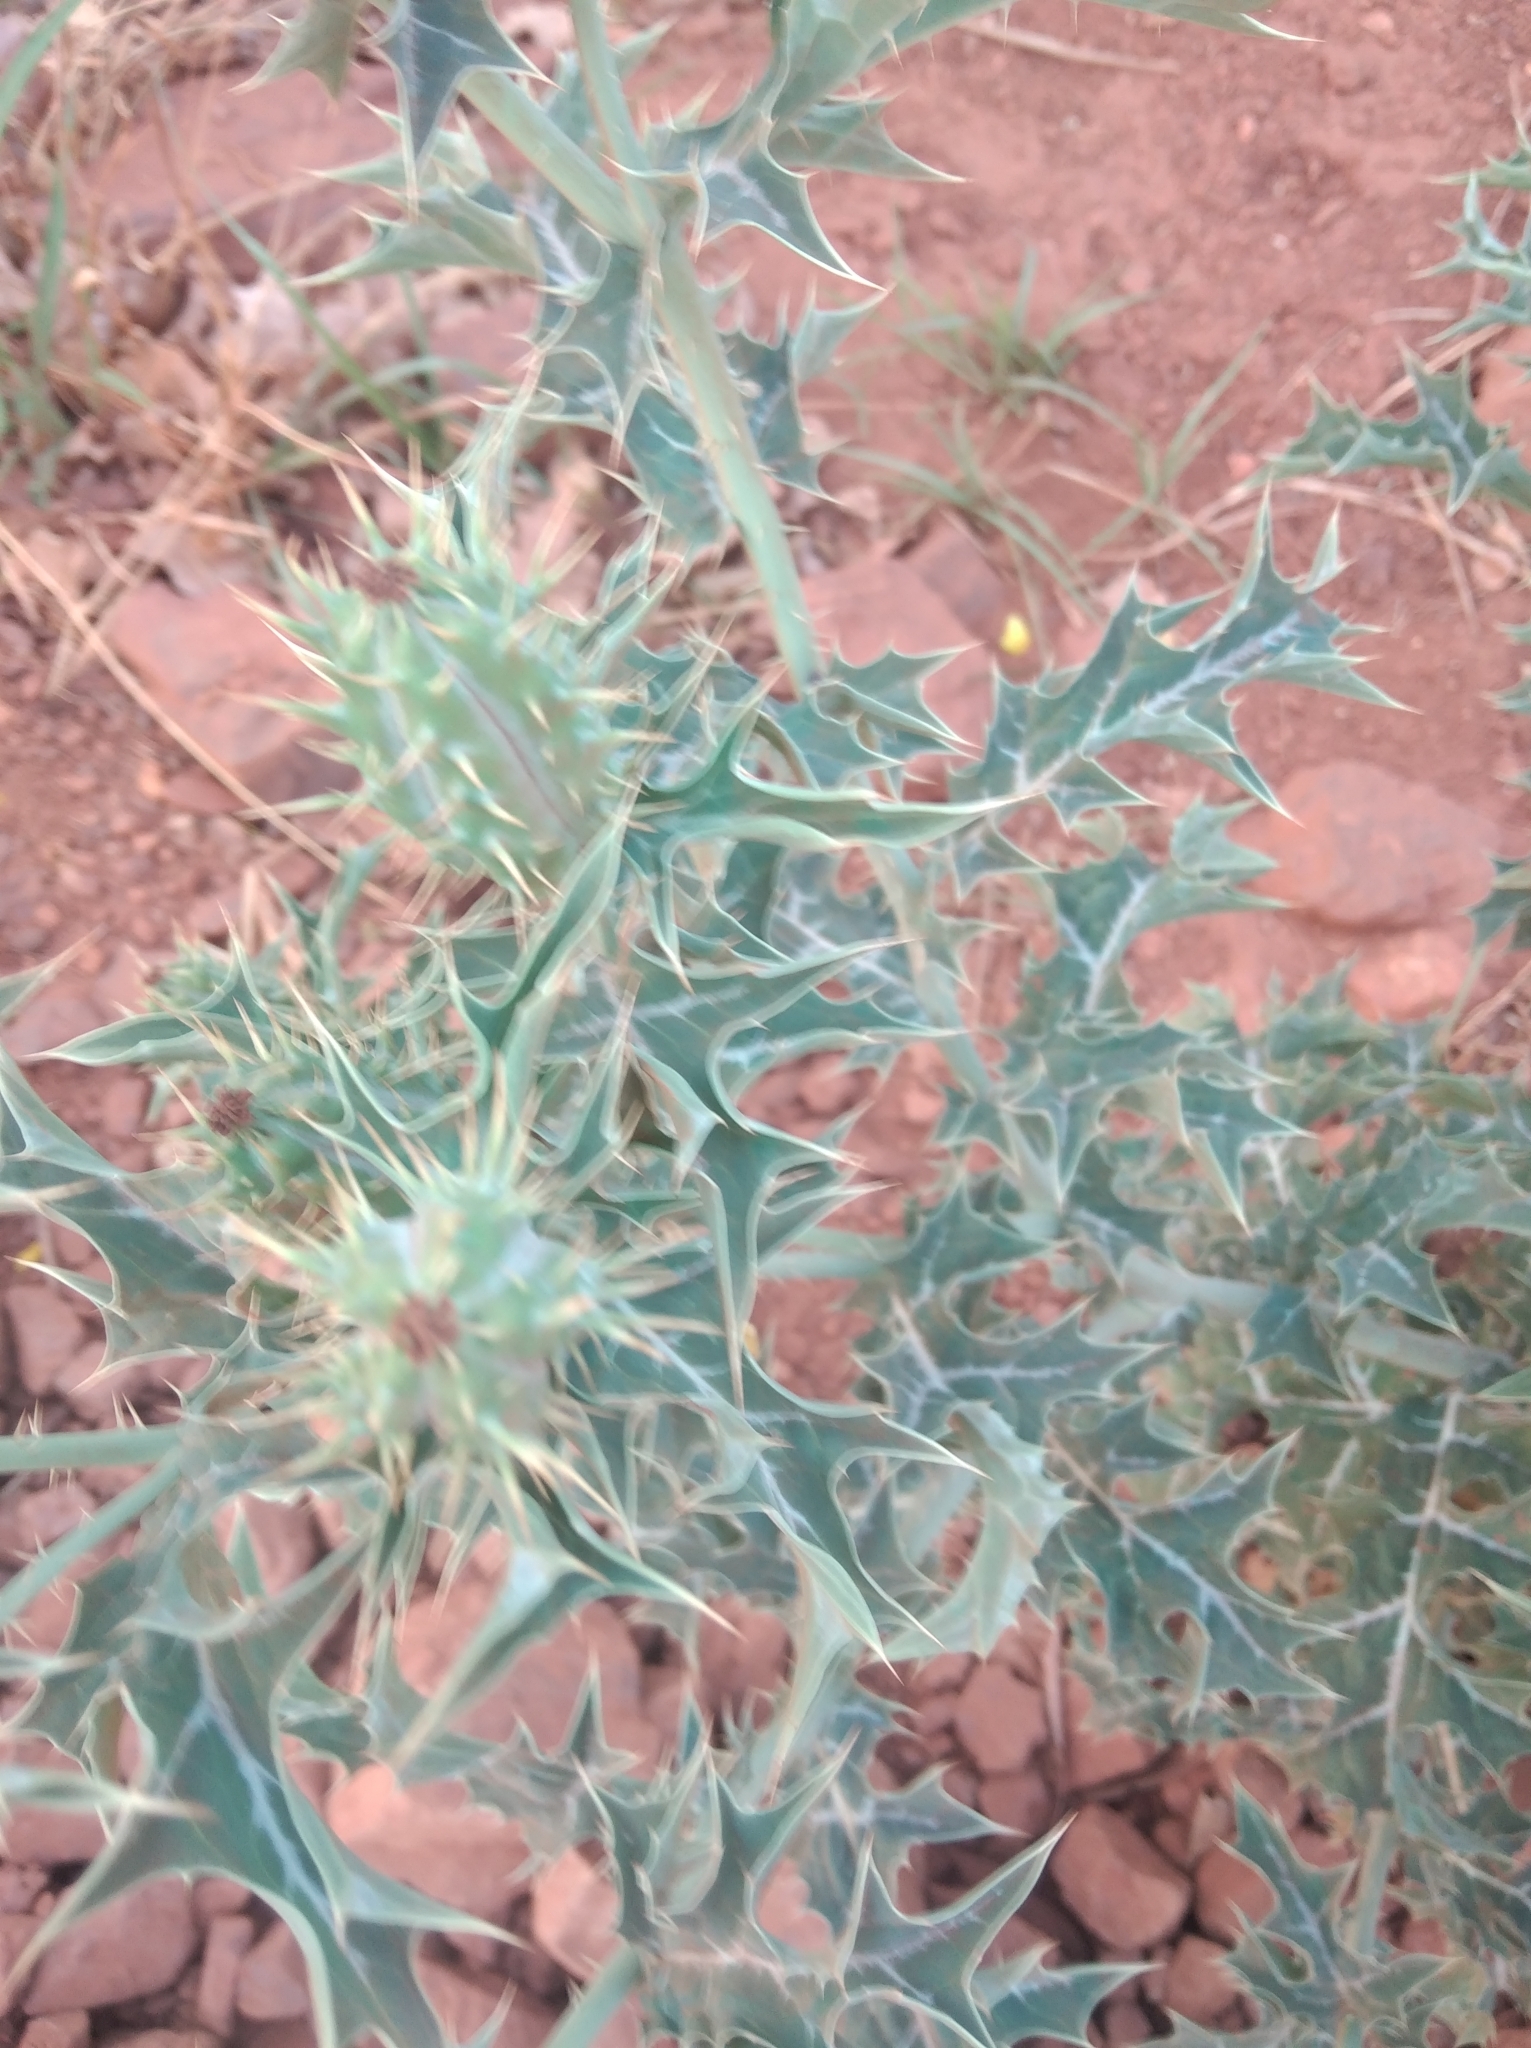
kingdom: Plantae
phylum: Tracheophyta
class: Magnoliopsida
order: Ranunculales
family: Papaveraceae
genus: Argemone
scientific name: Argemone mexicana
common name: Mexican poppy
